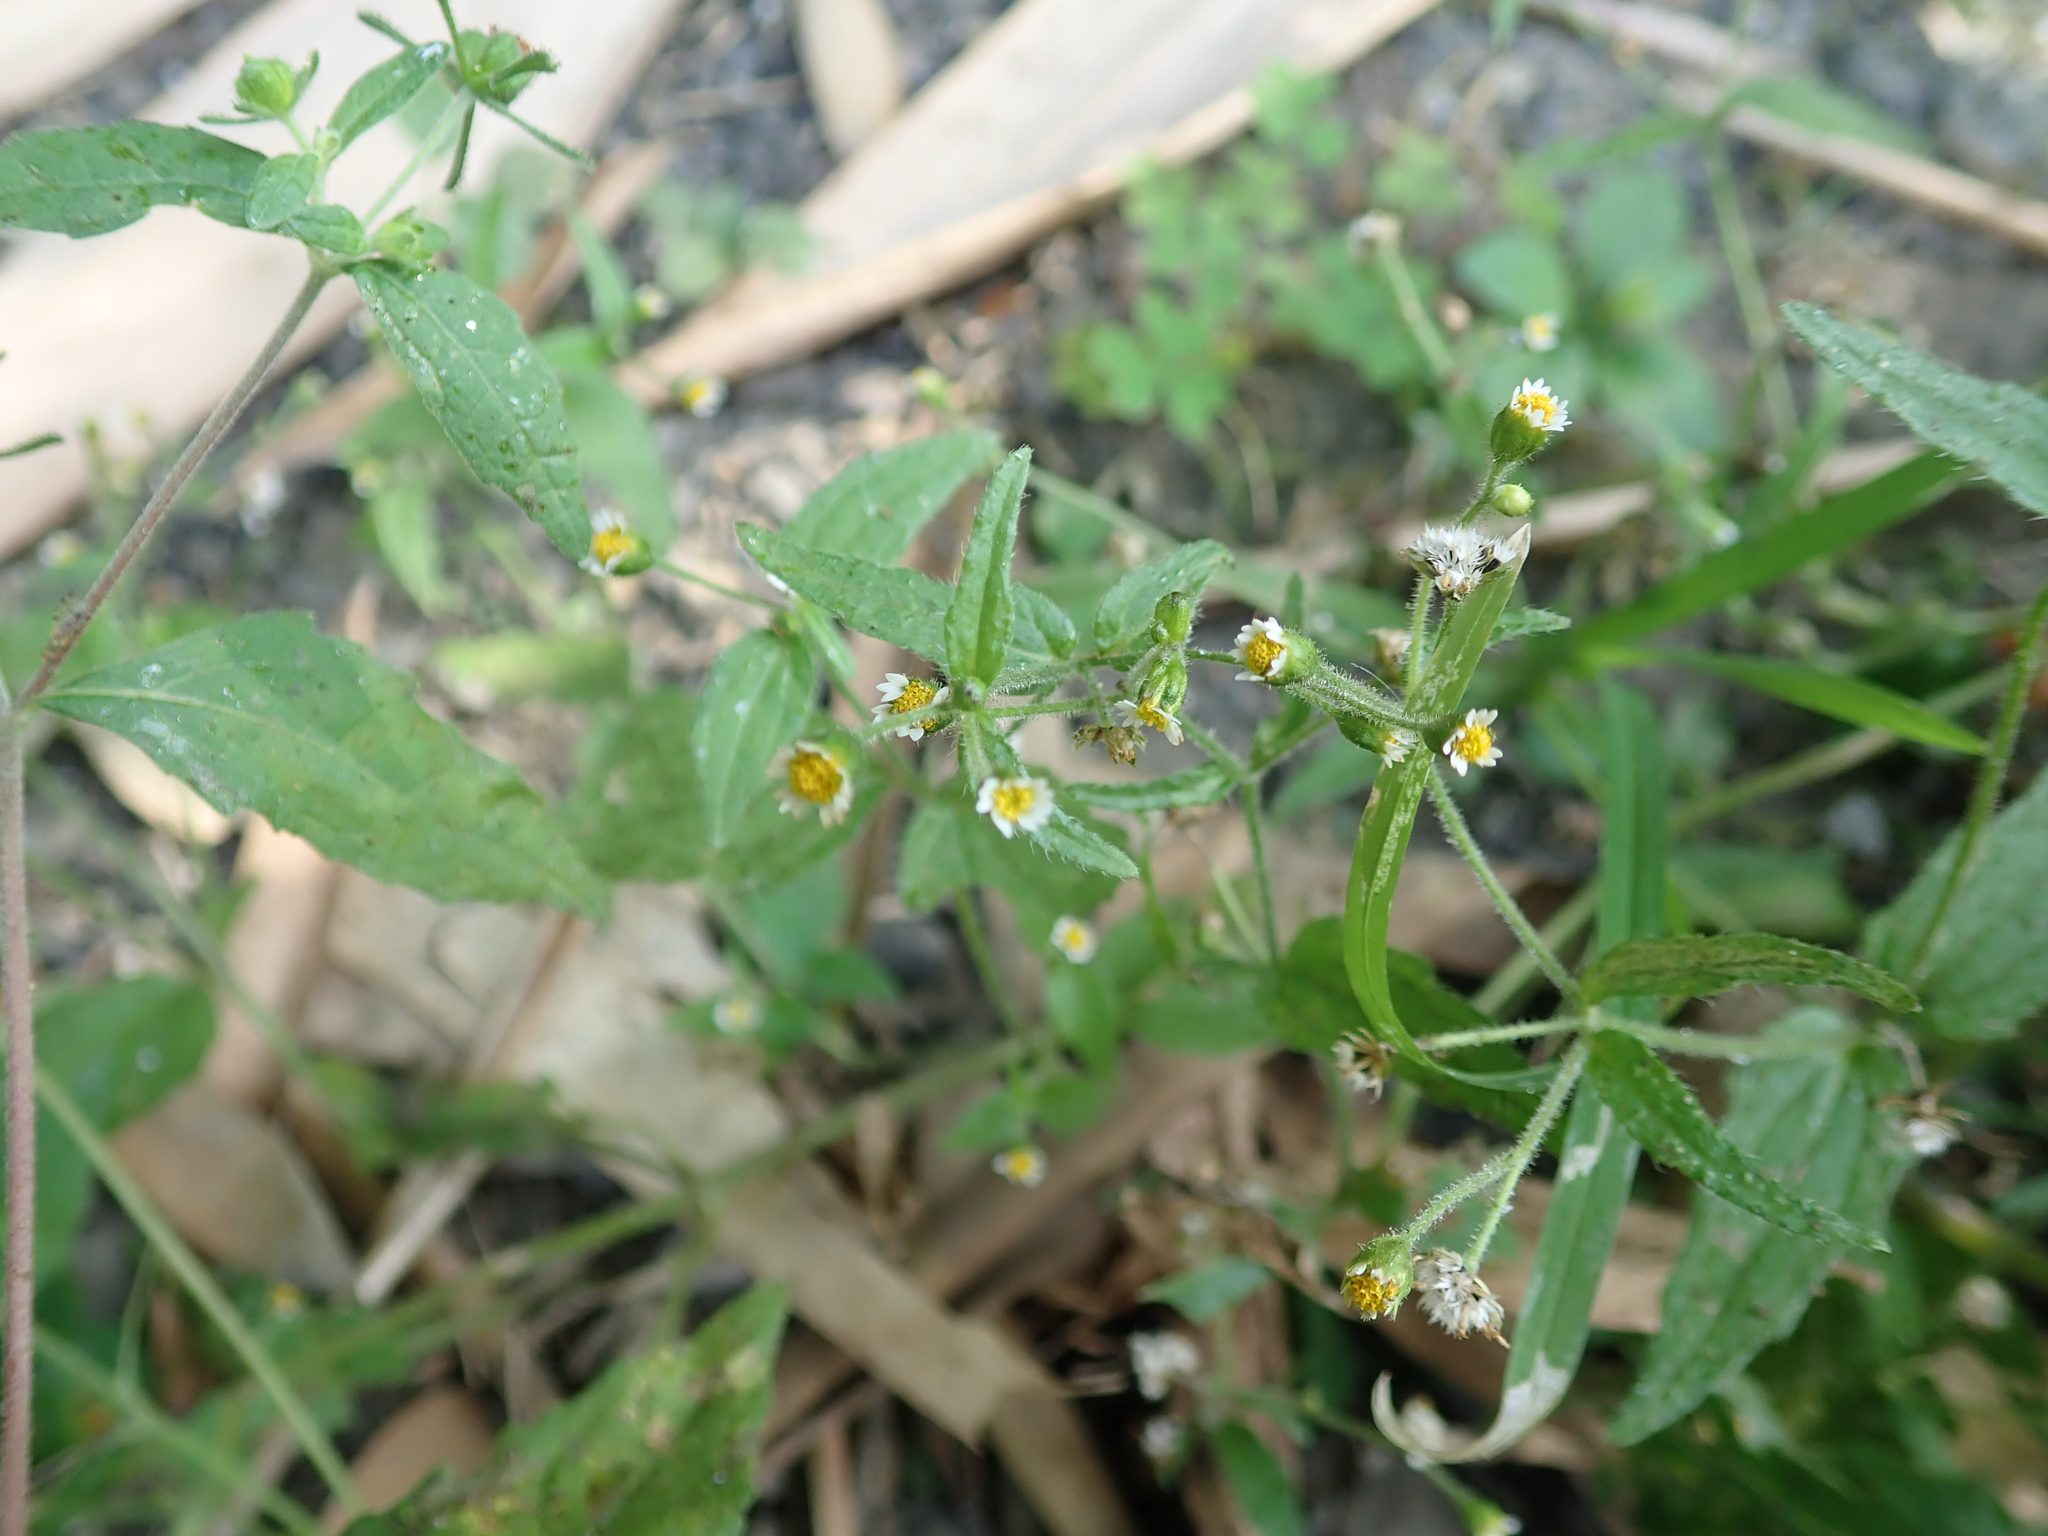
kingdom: Plantae
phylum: Tracheophyta
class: Magnoliopsida
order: Asterales
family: Asteraceae
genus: Galinsoga
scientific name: Galinsoga quadriradiata
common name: Shaggy soldier
